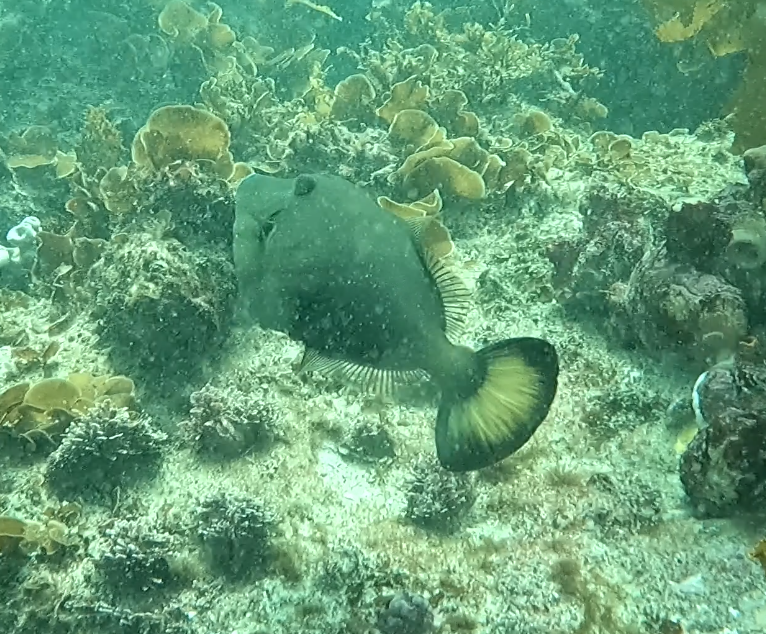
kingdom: Animalia
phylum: Chordata
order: Tetraodontiformes
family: Monacanthidae
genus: Meuschenia
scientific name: Meuschenia flavolineata
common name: Yellowstriped leatherjacket
